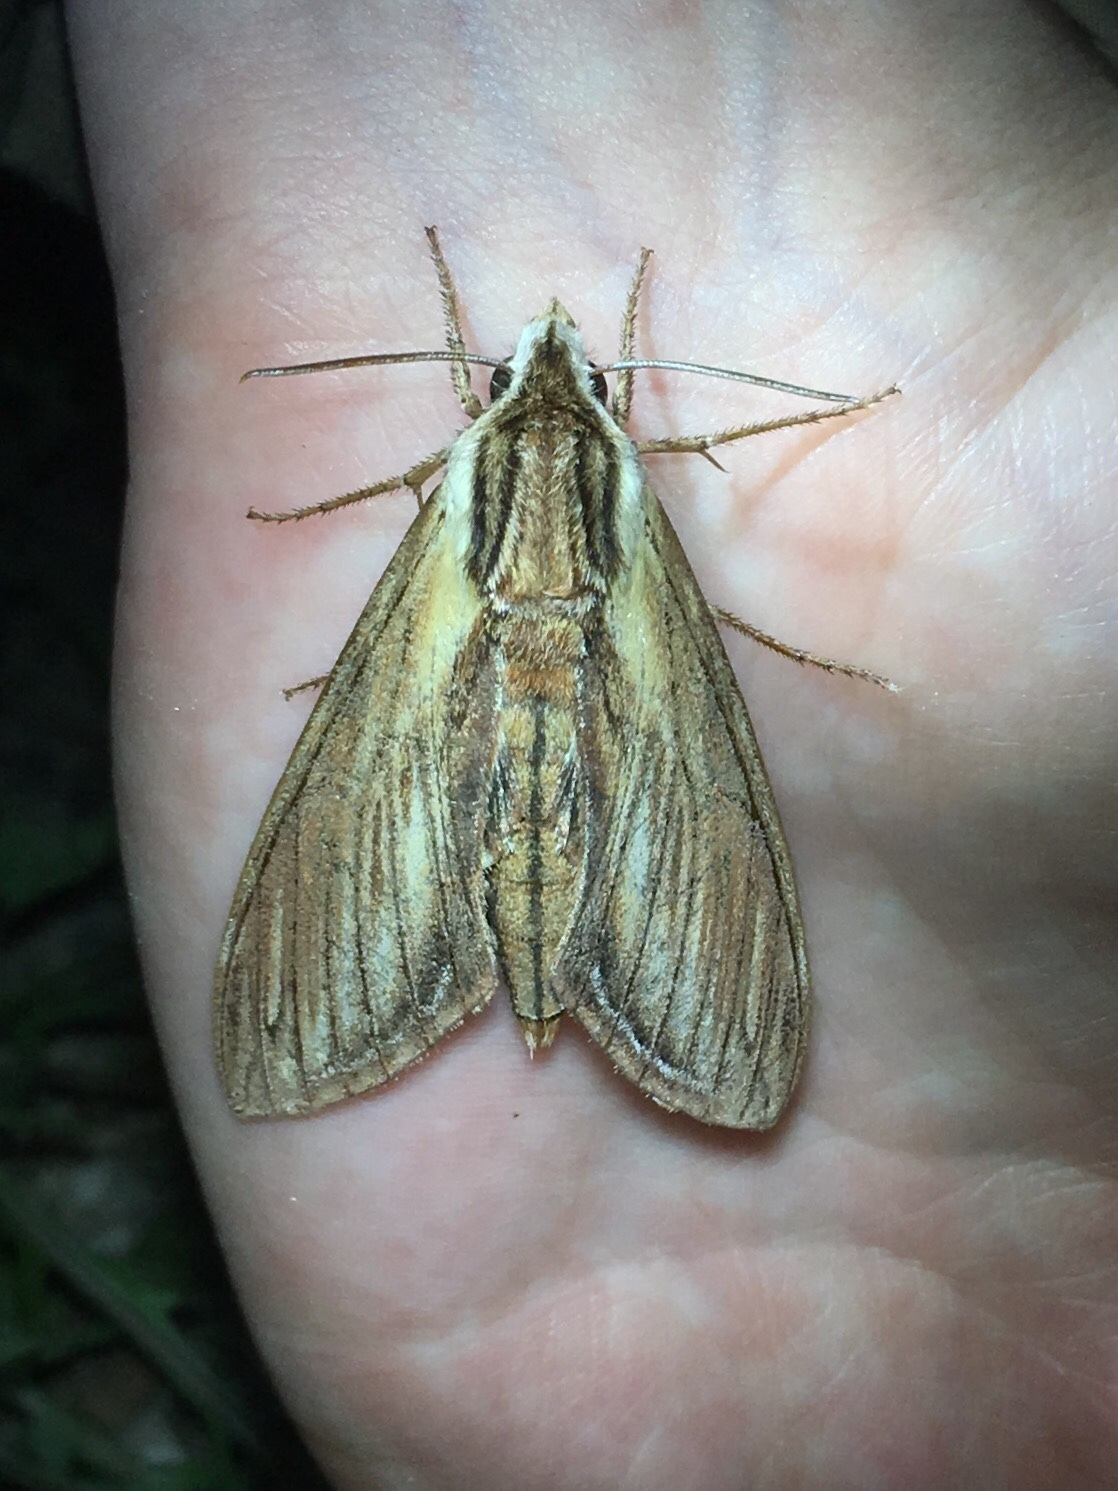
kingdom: Animalia
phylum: Arthropoda
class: Insecta
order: Lepidoptera
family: Sphingidae
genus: Sphinx
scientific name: Sphinx kalmiae
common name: Laurel sphinx
